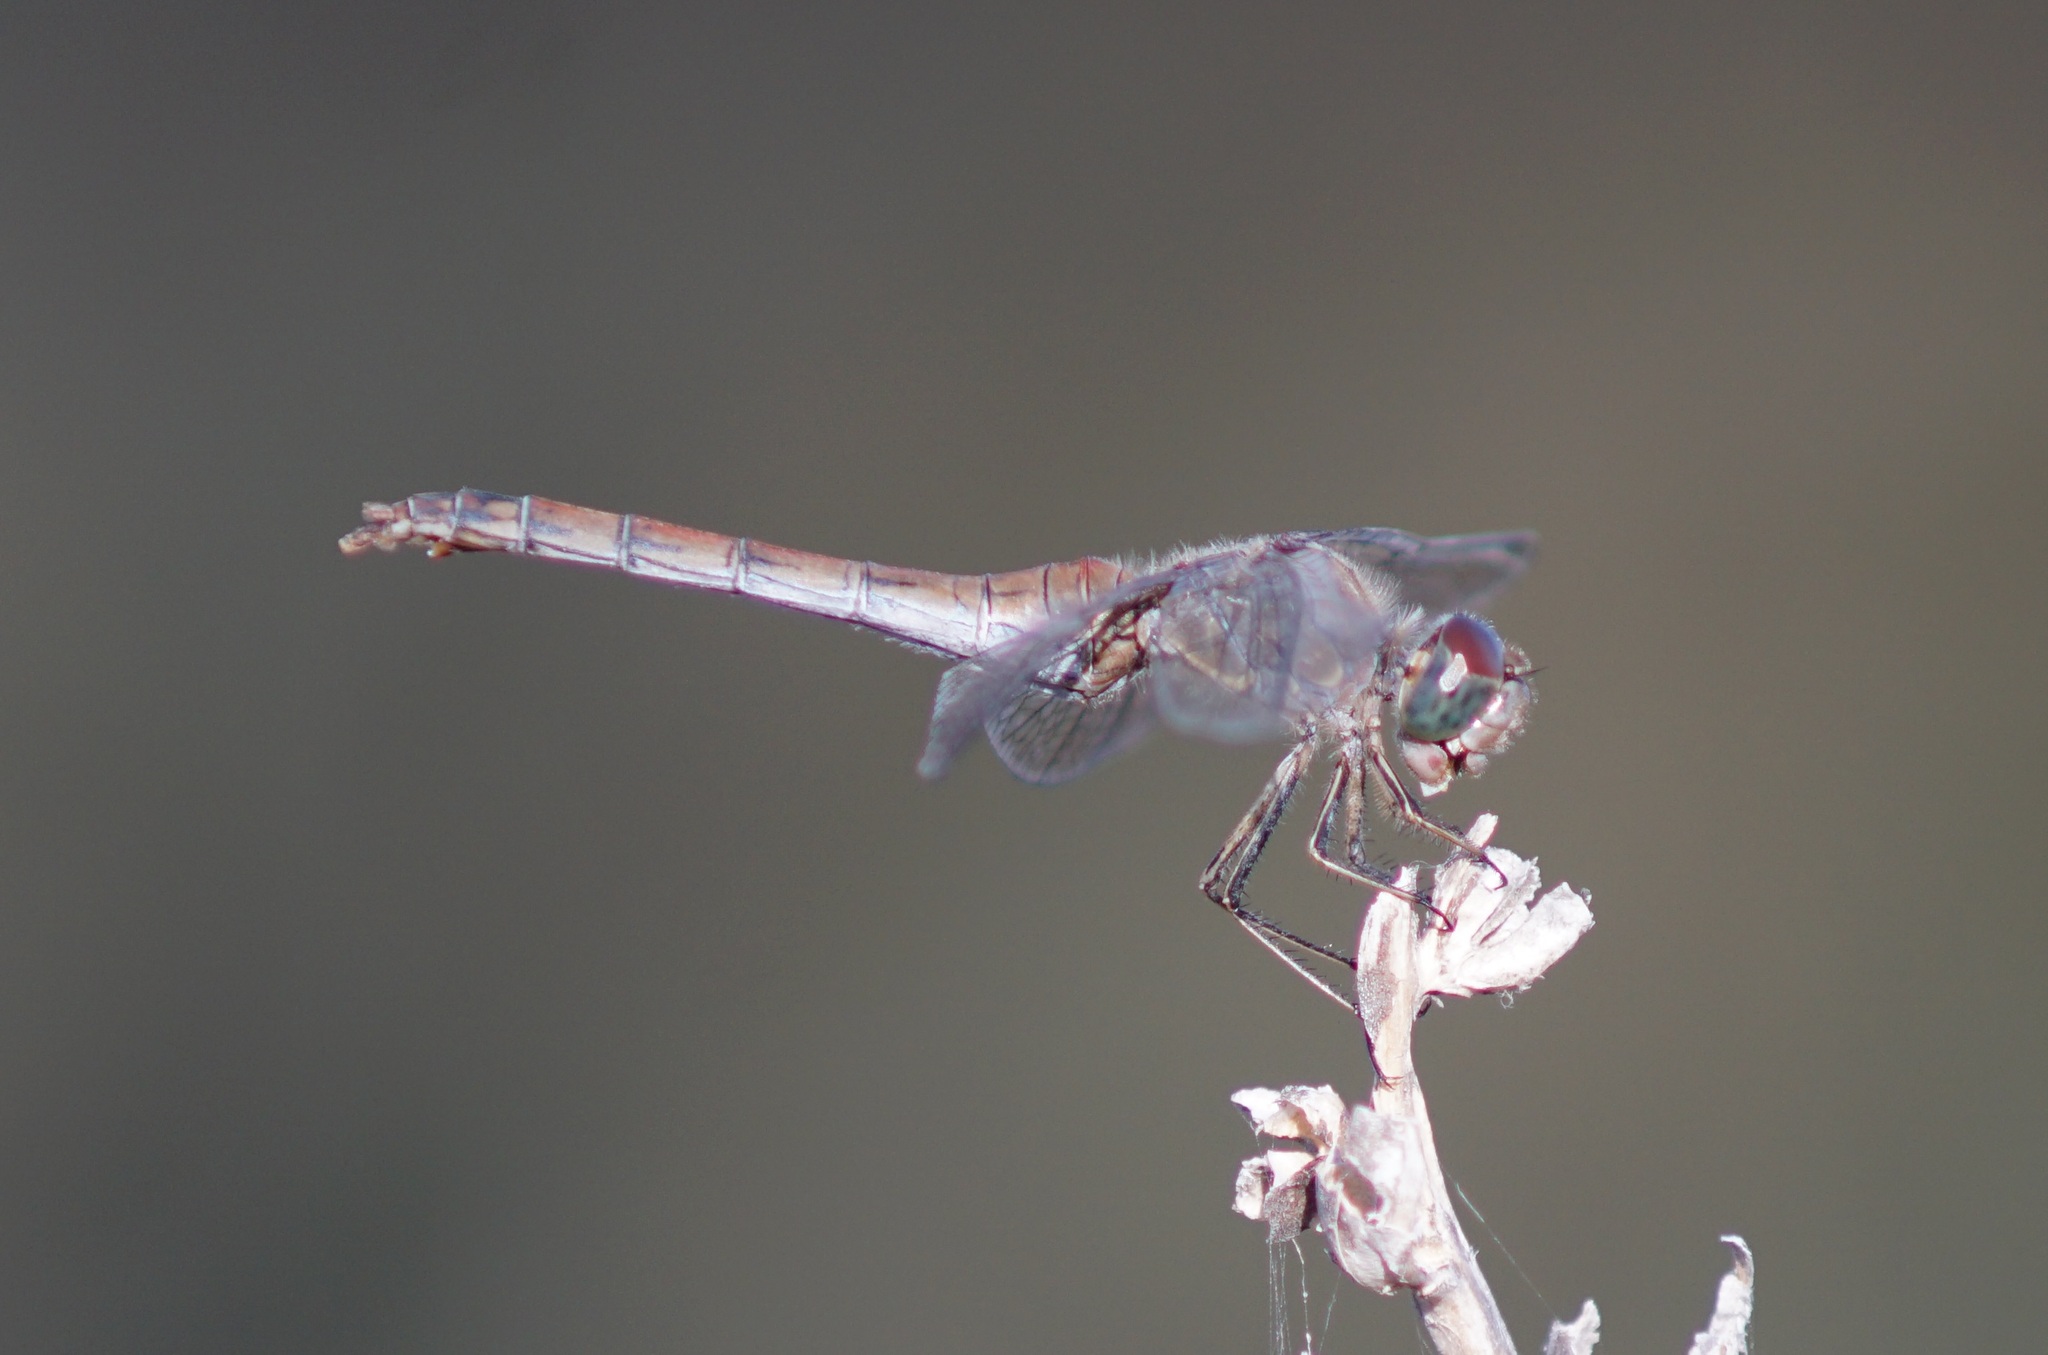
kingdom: Animalia
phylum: Arthropoda
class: Insecta
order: Odonata
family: Libellulidae
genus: Sympetrum
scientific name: Sympetrum striolatum
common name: Common darter
